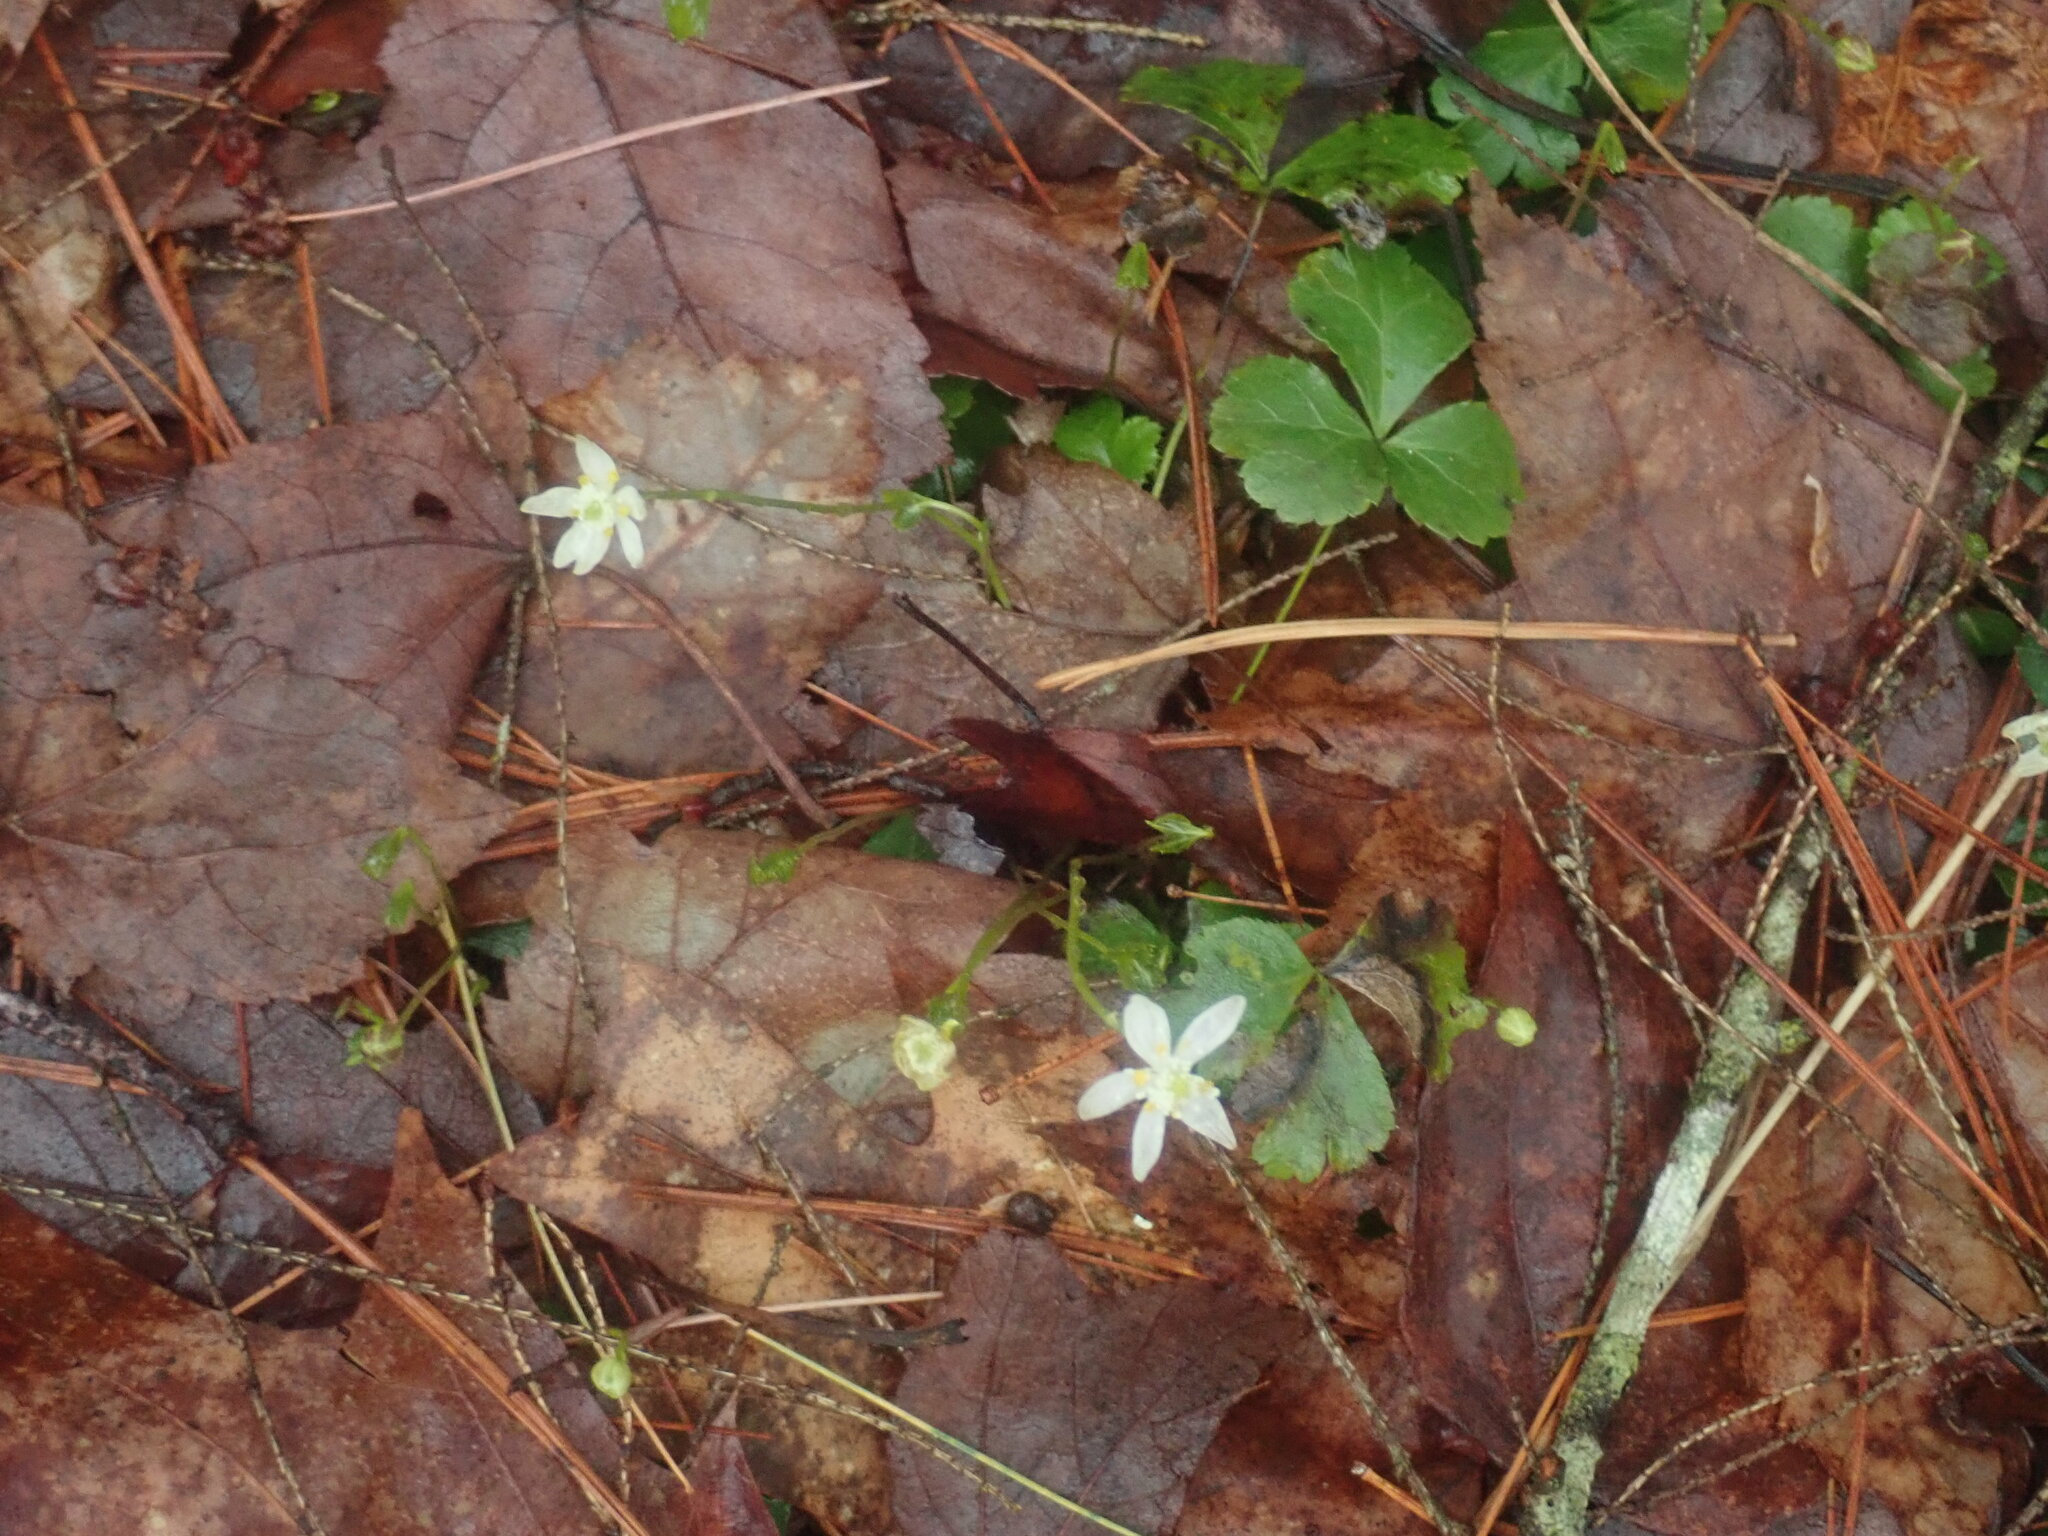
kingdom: Plantae
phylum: Tracheophyta
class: Magnoliopsida
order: Ranunculales
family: Ranunculaceae
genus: Coptis
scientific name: Coptis trifolia
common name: Canker-root
